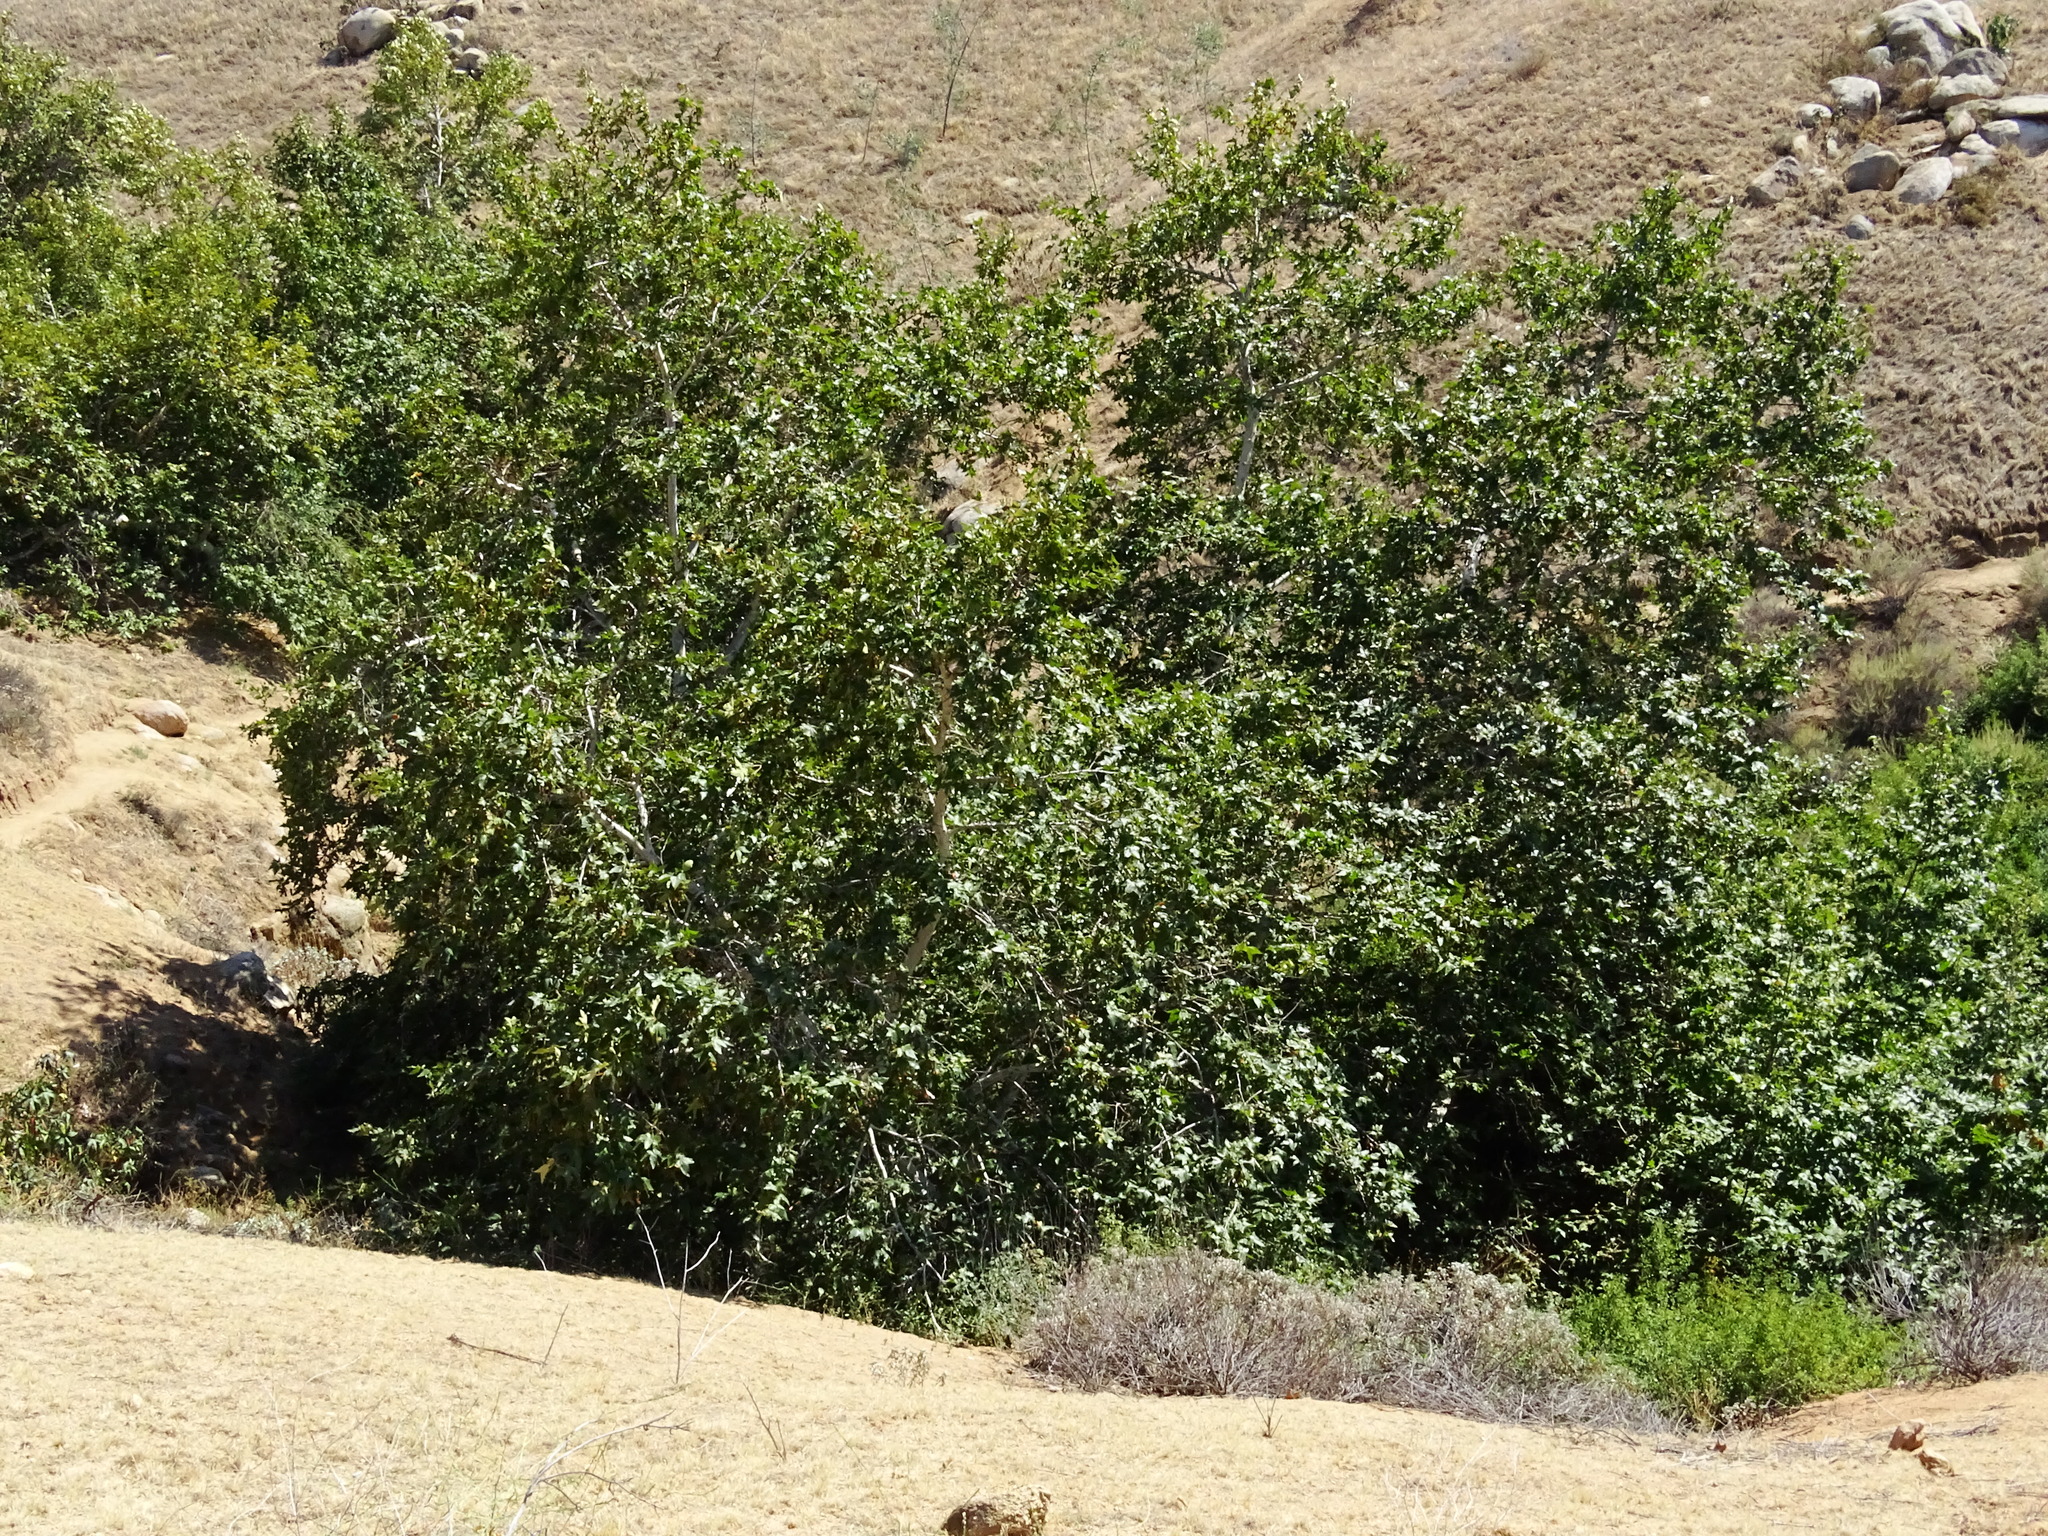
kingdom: Plantae
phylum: Tracheophyta
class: Magnoliopsida
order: Proteales
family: Platanaceae
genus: Platanus
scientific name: Platanus racemosa
